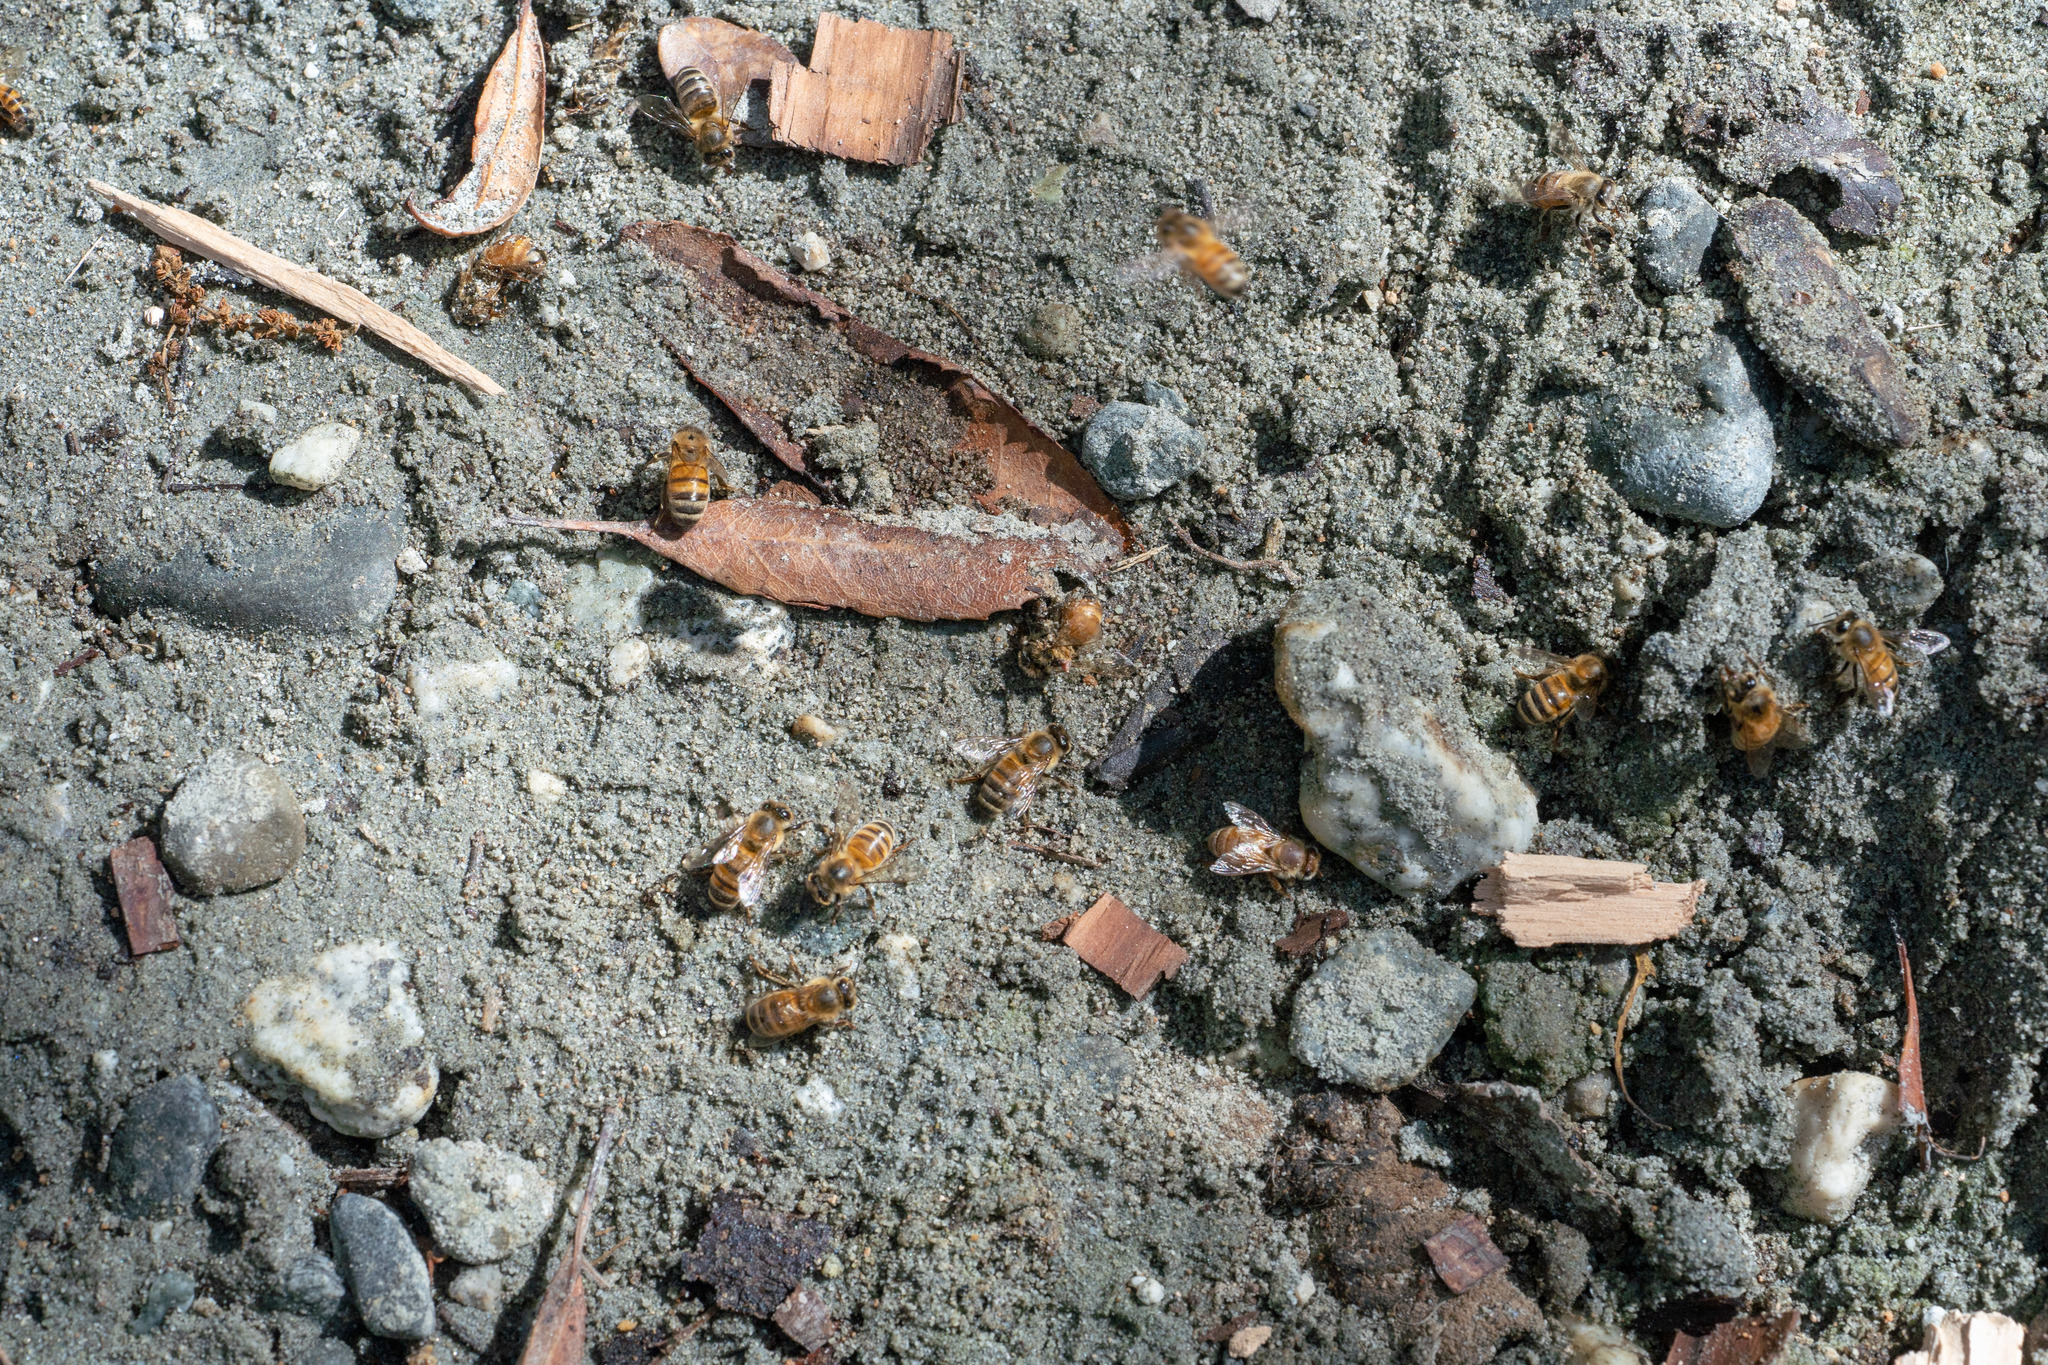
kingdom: Animalia
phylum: Arthropoda
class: Insecta
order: Hymenoptera
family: Apidae
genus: Apis
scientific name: Apis mellifera
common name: Honey bee
